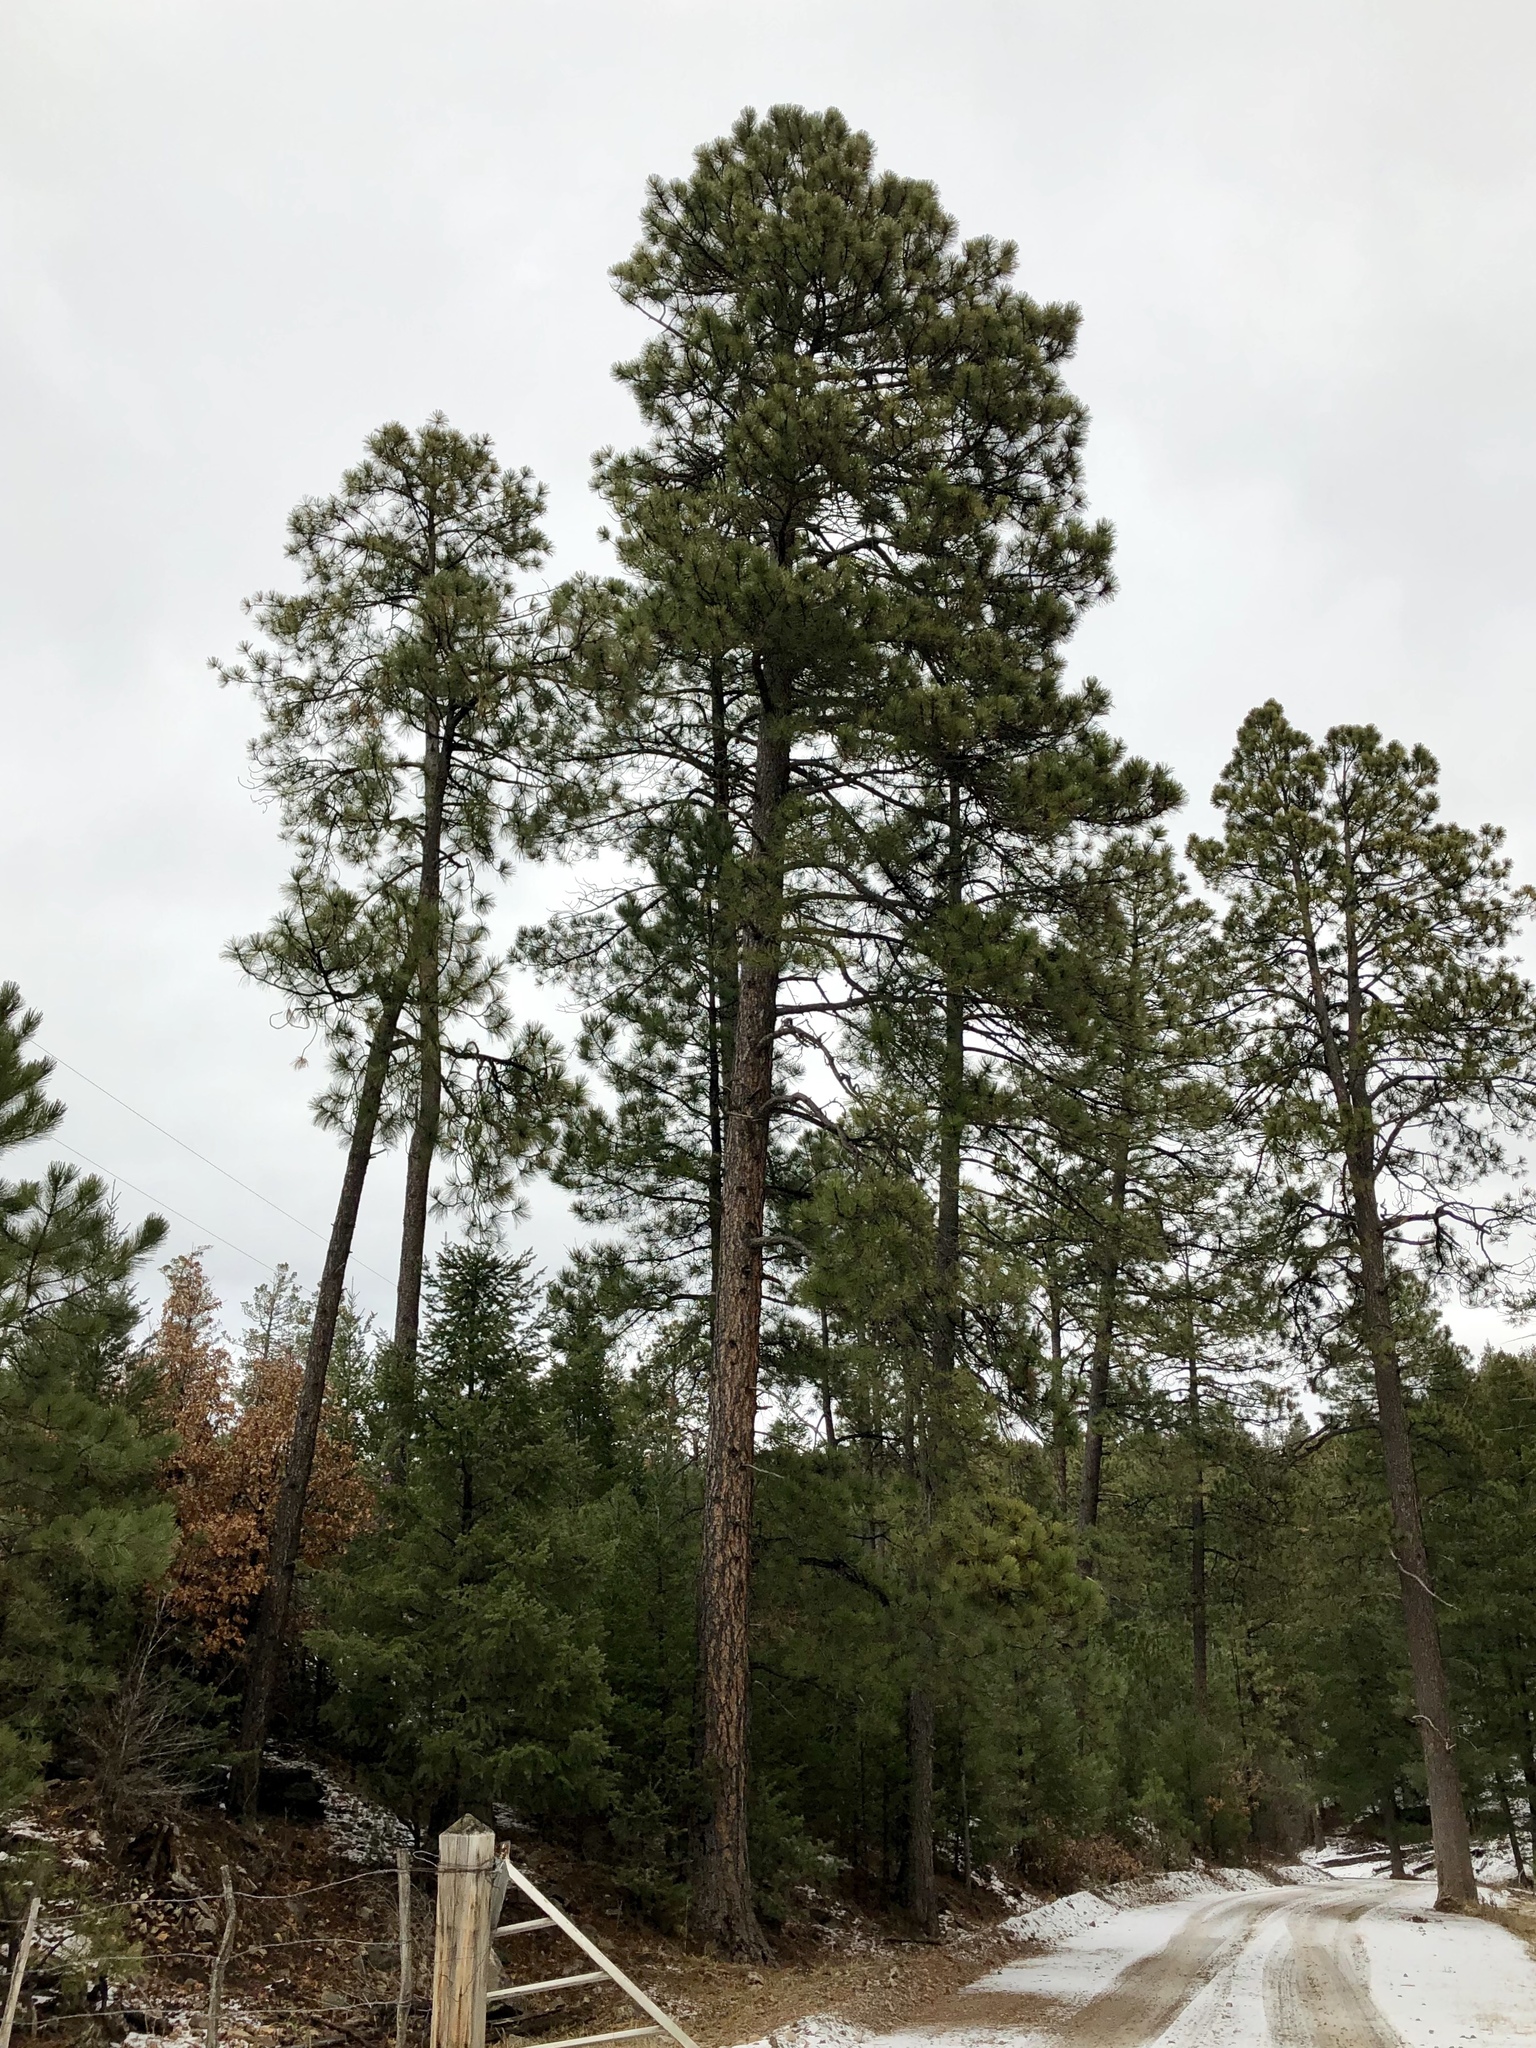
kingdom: Plantae
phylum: Tracheophyta
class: Pinopsida
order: Pinales
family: Pinaceae
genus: Pinus
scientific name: Pinus ponderosa
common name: Western yellow-pine
